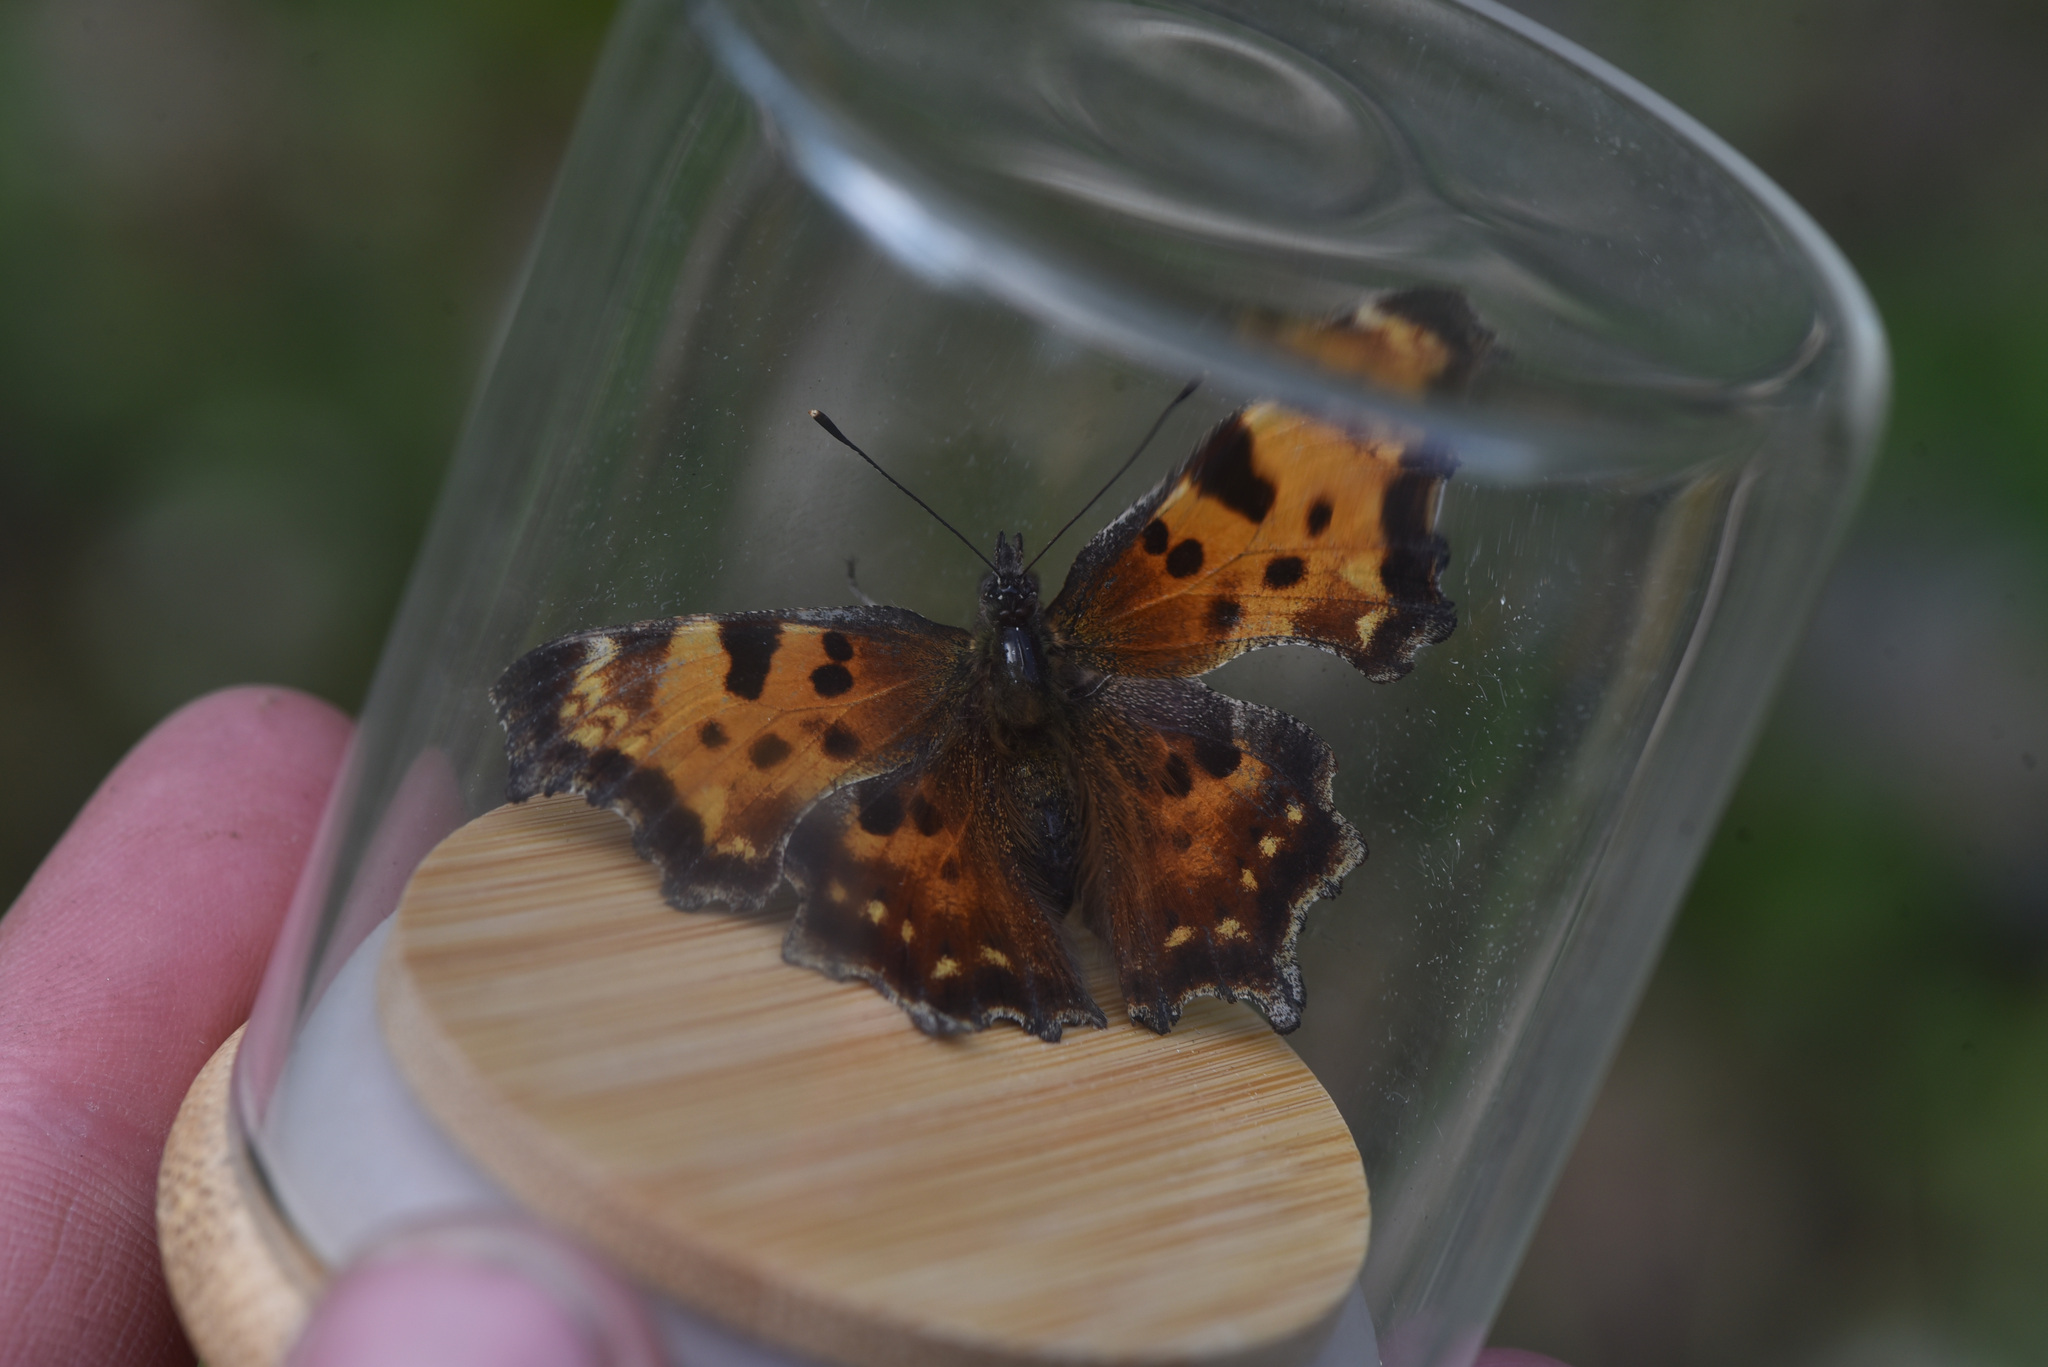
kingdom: Animalia
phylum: Arthropoda
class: Insecta
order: Lepidoptera
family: Nymphalidae
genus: Polygonia
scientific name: Polygonia faunus
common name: Green comma
